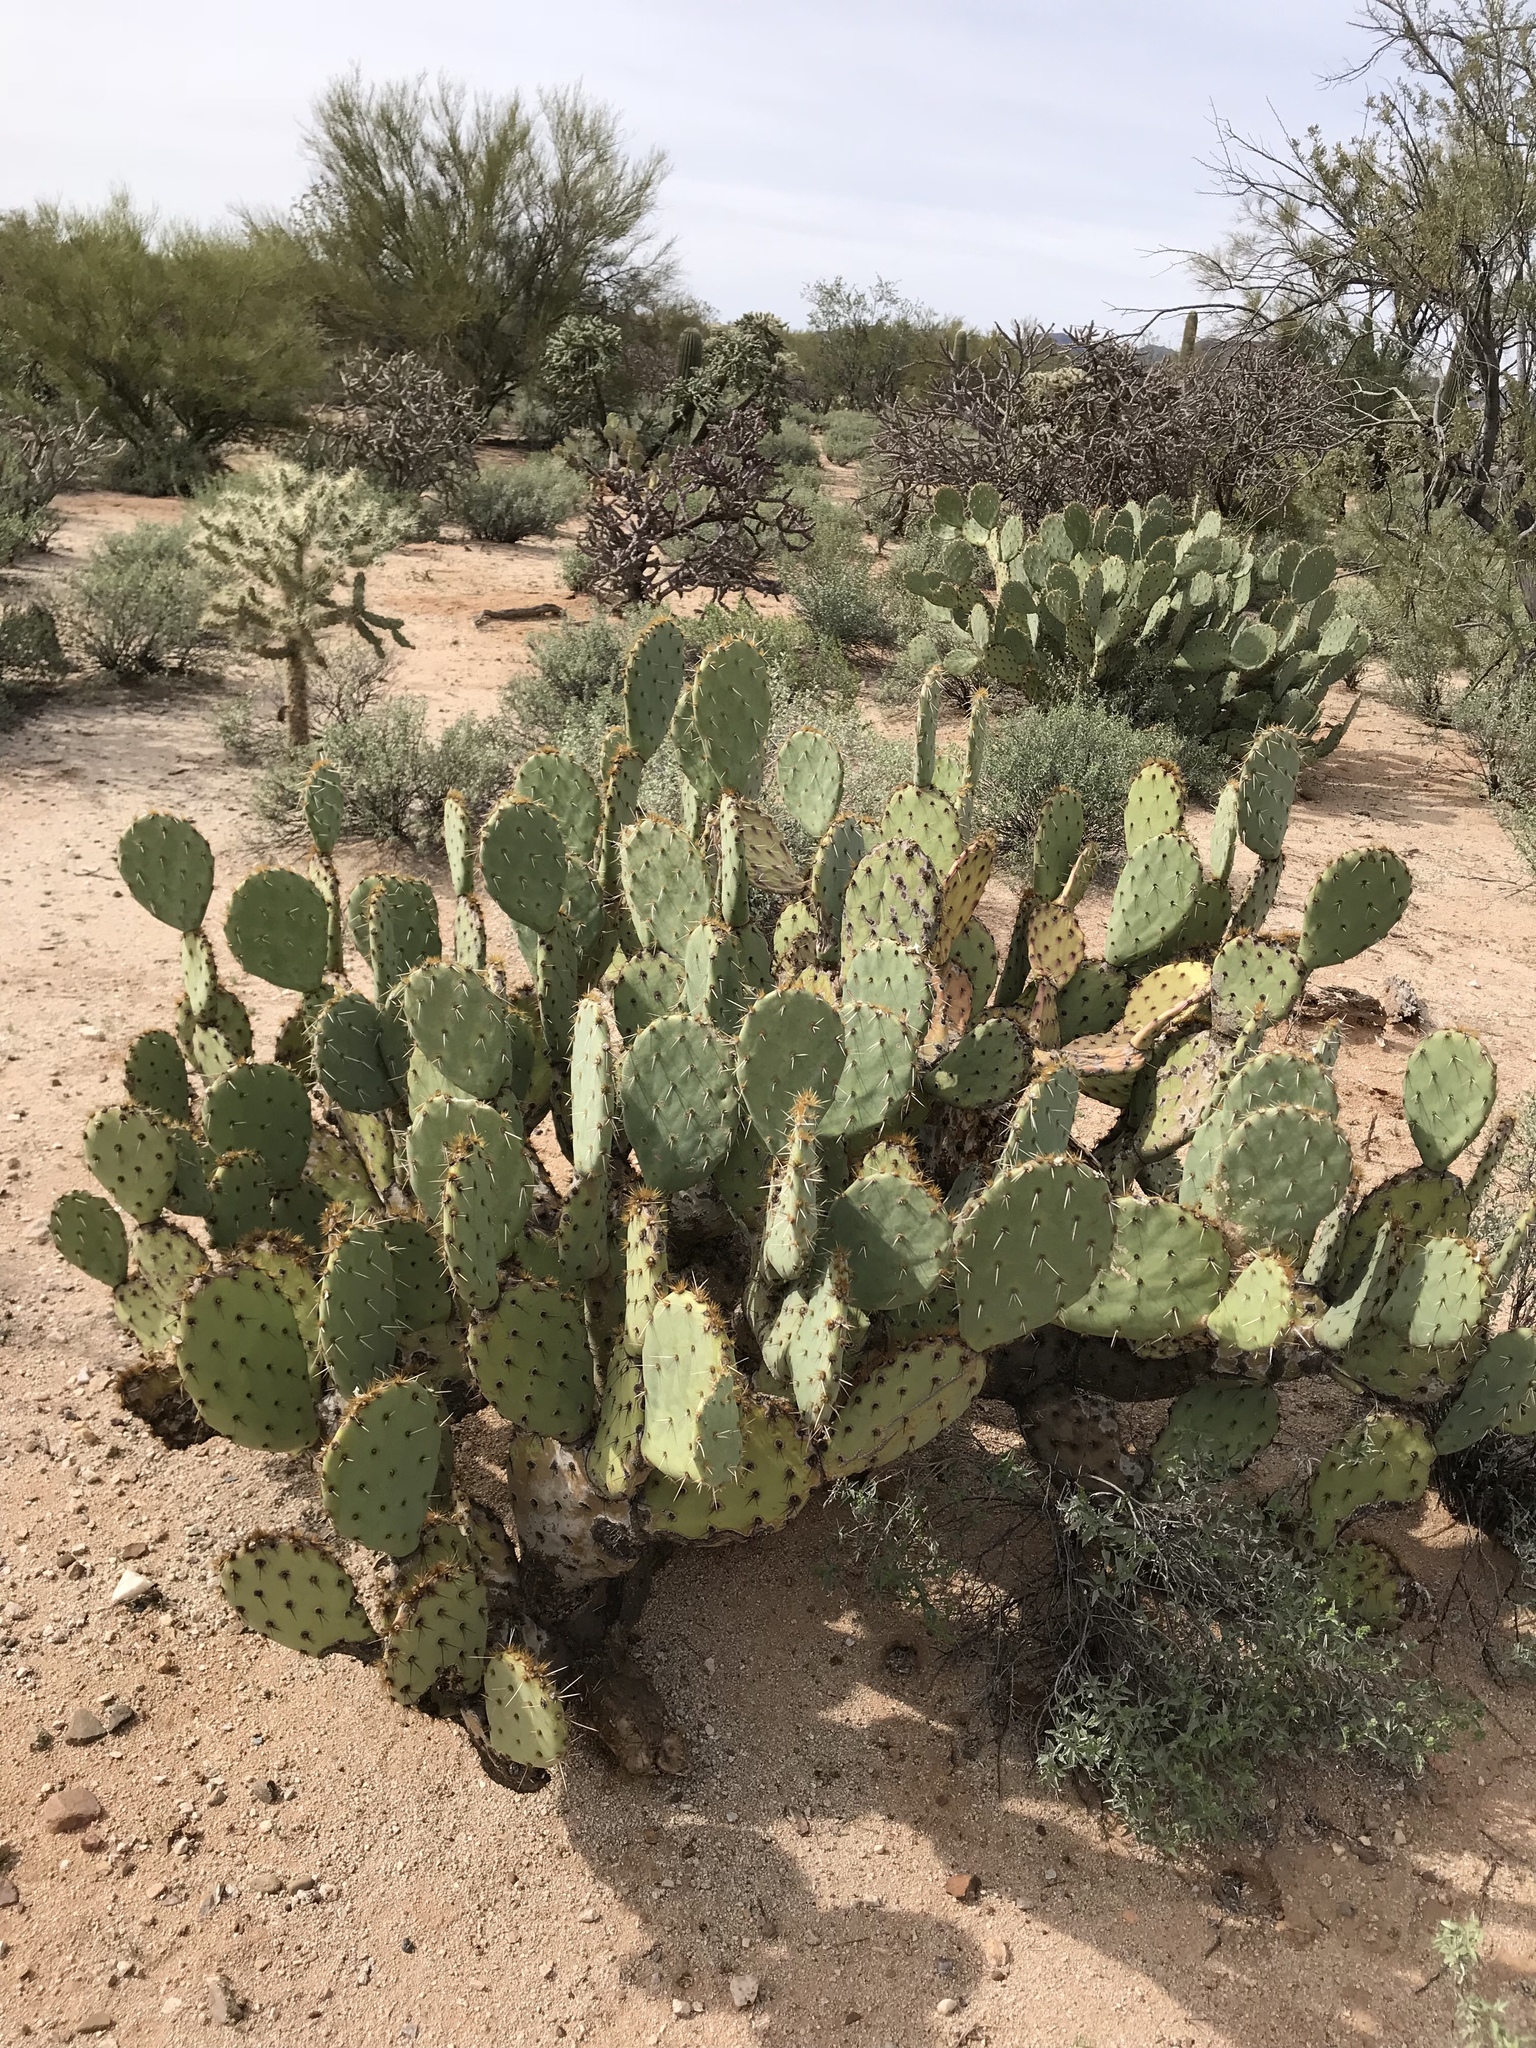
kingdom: Plantae
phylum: Tracheophyta
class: Magnoliopsida
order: Caryophyllales
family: Cactaceae
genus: Opuntia
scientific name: Opuntia engelmannii
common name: Cactus-apple
